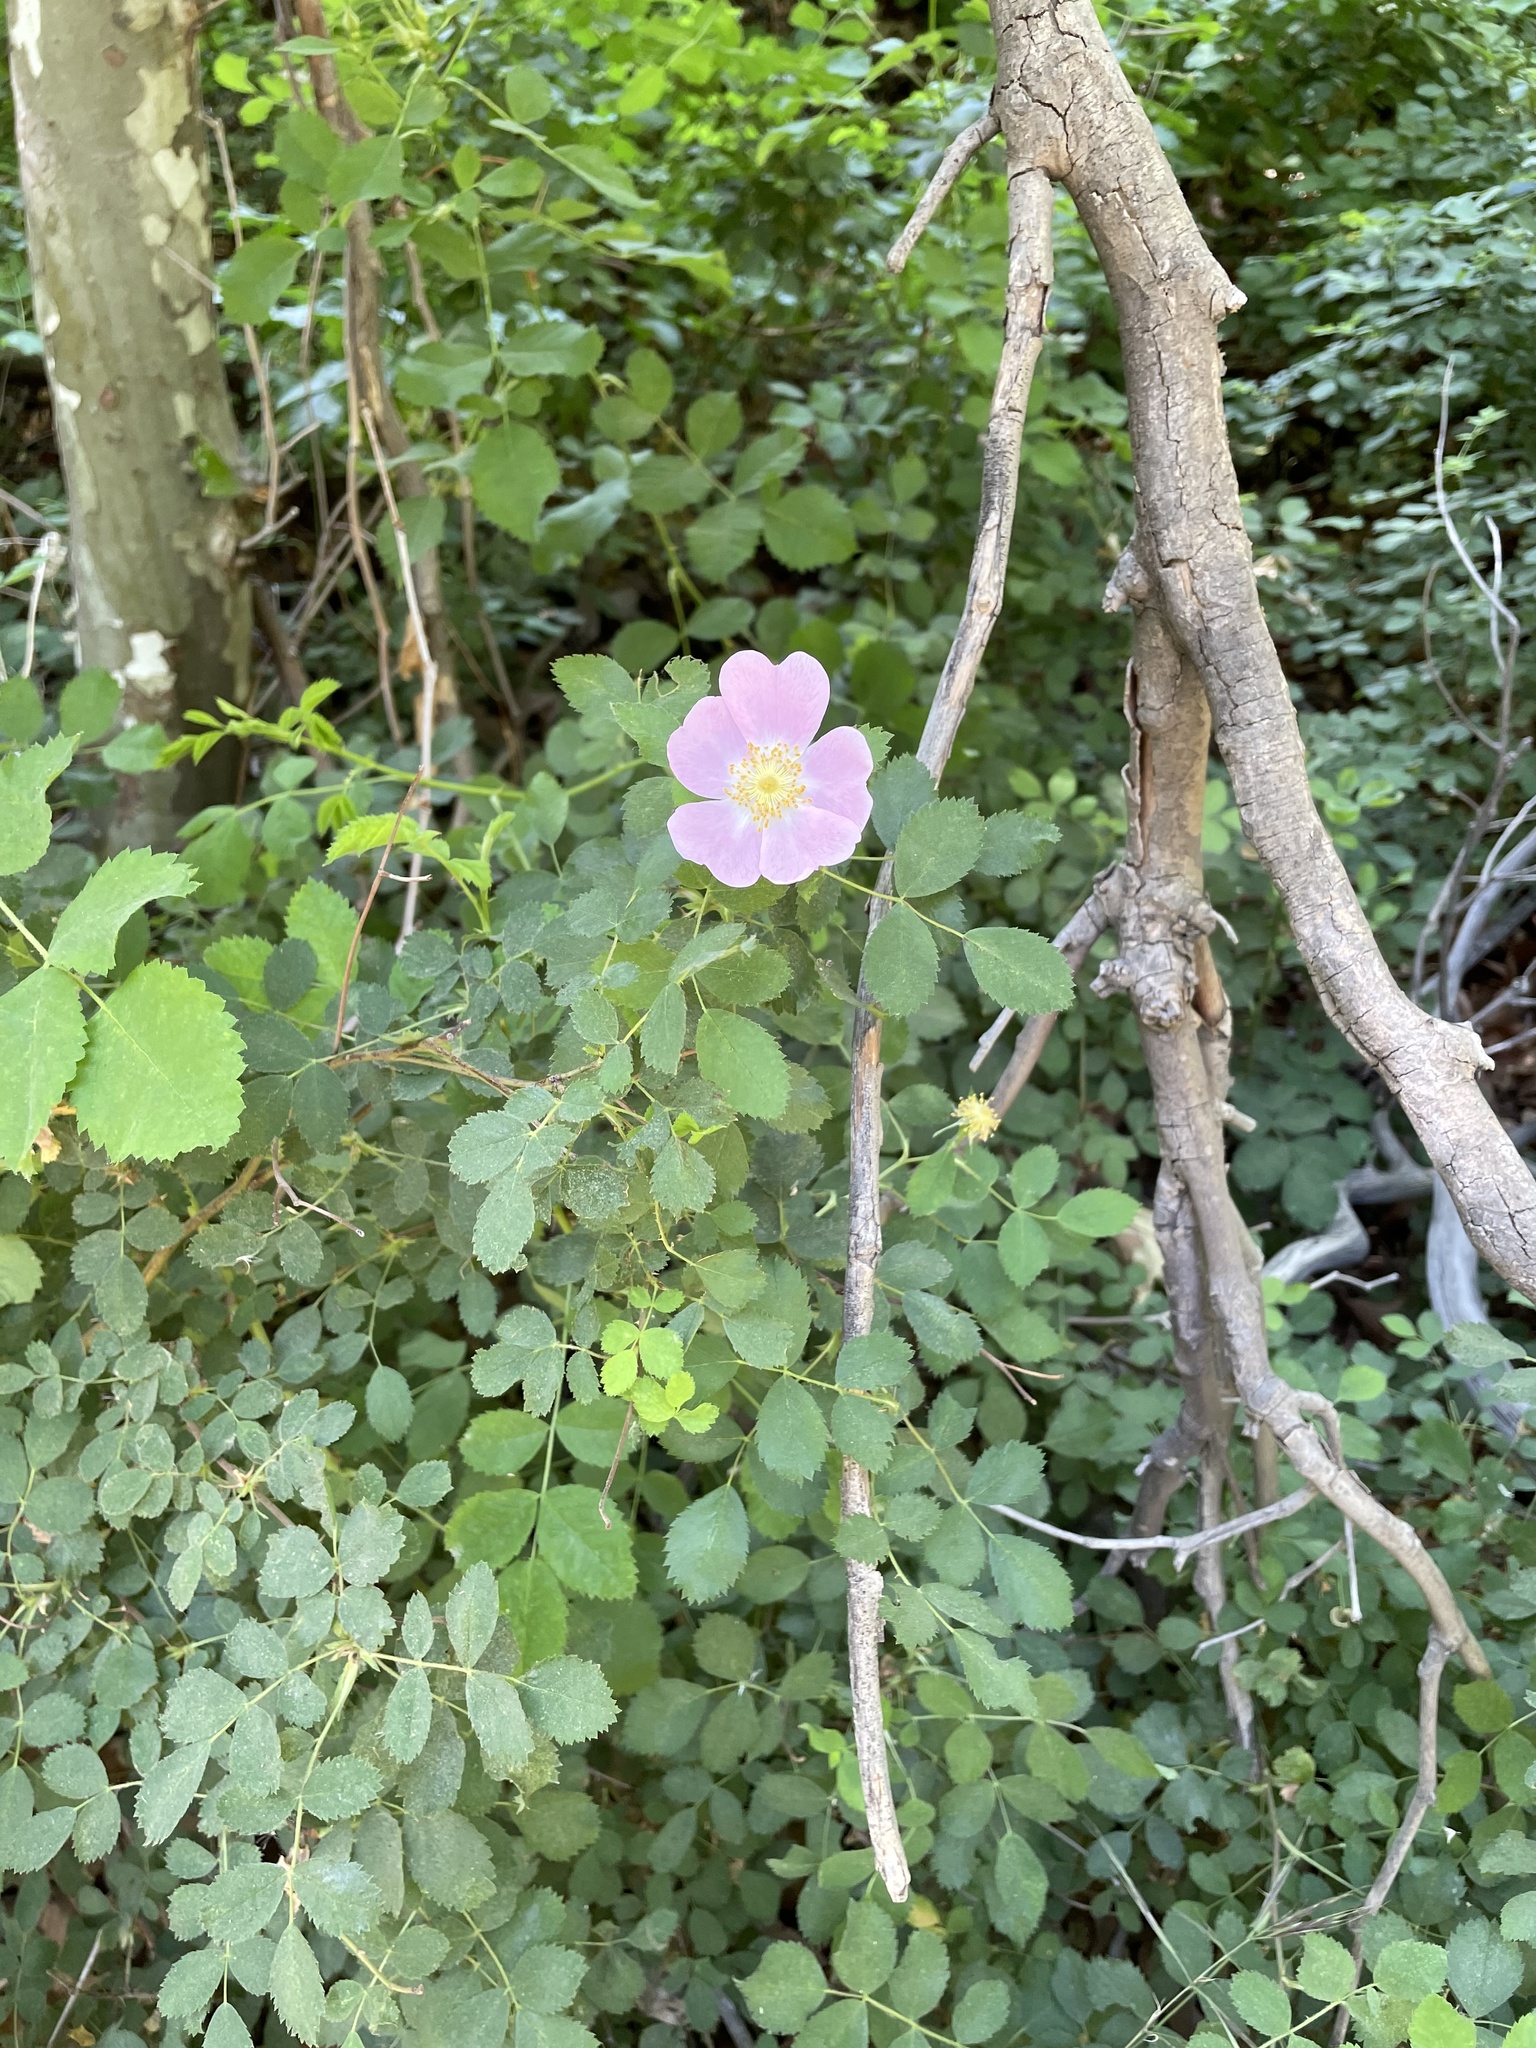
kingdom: Plantae
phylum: Tracheophyta
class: Magnoliopsida
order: Rosales
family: Rosaceae
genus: Rosa
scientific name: Rosa californica
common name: California rose
